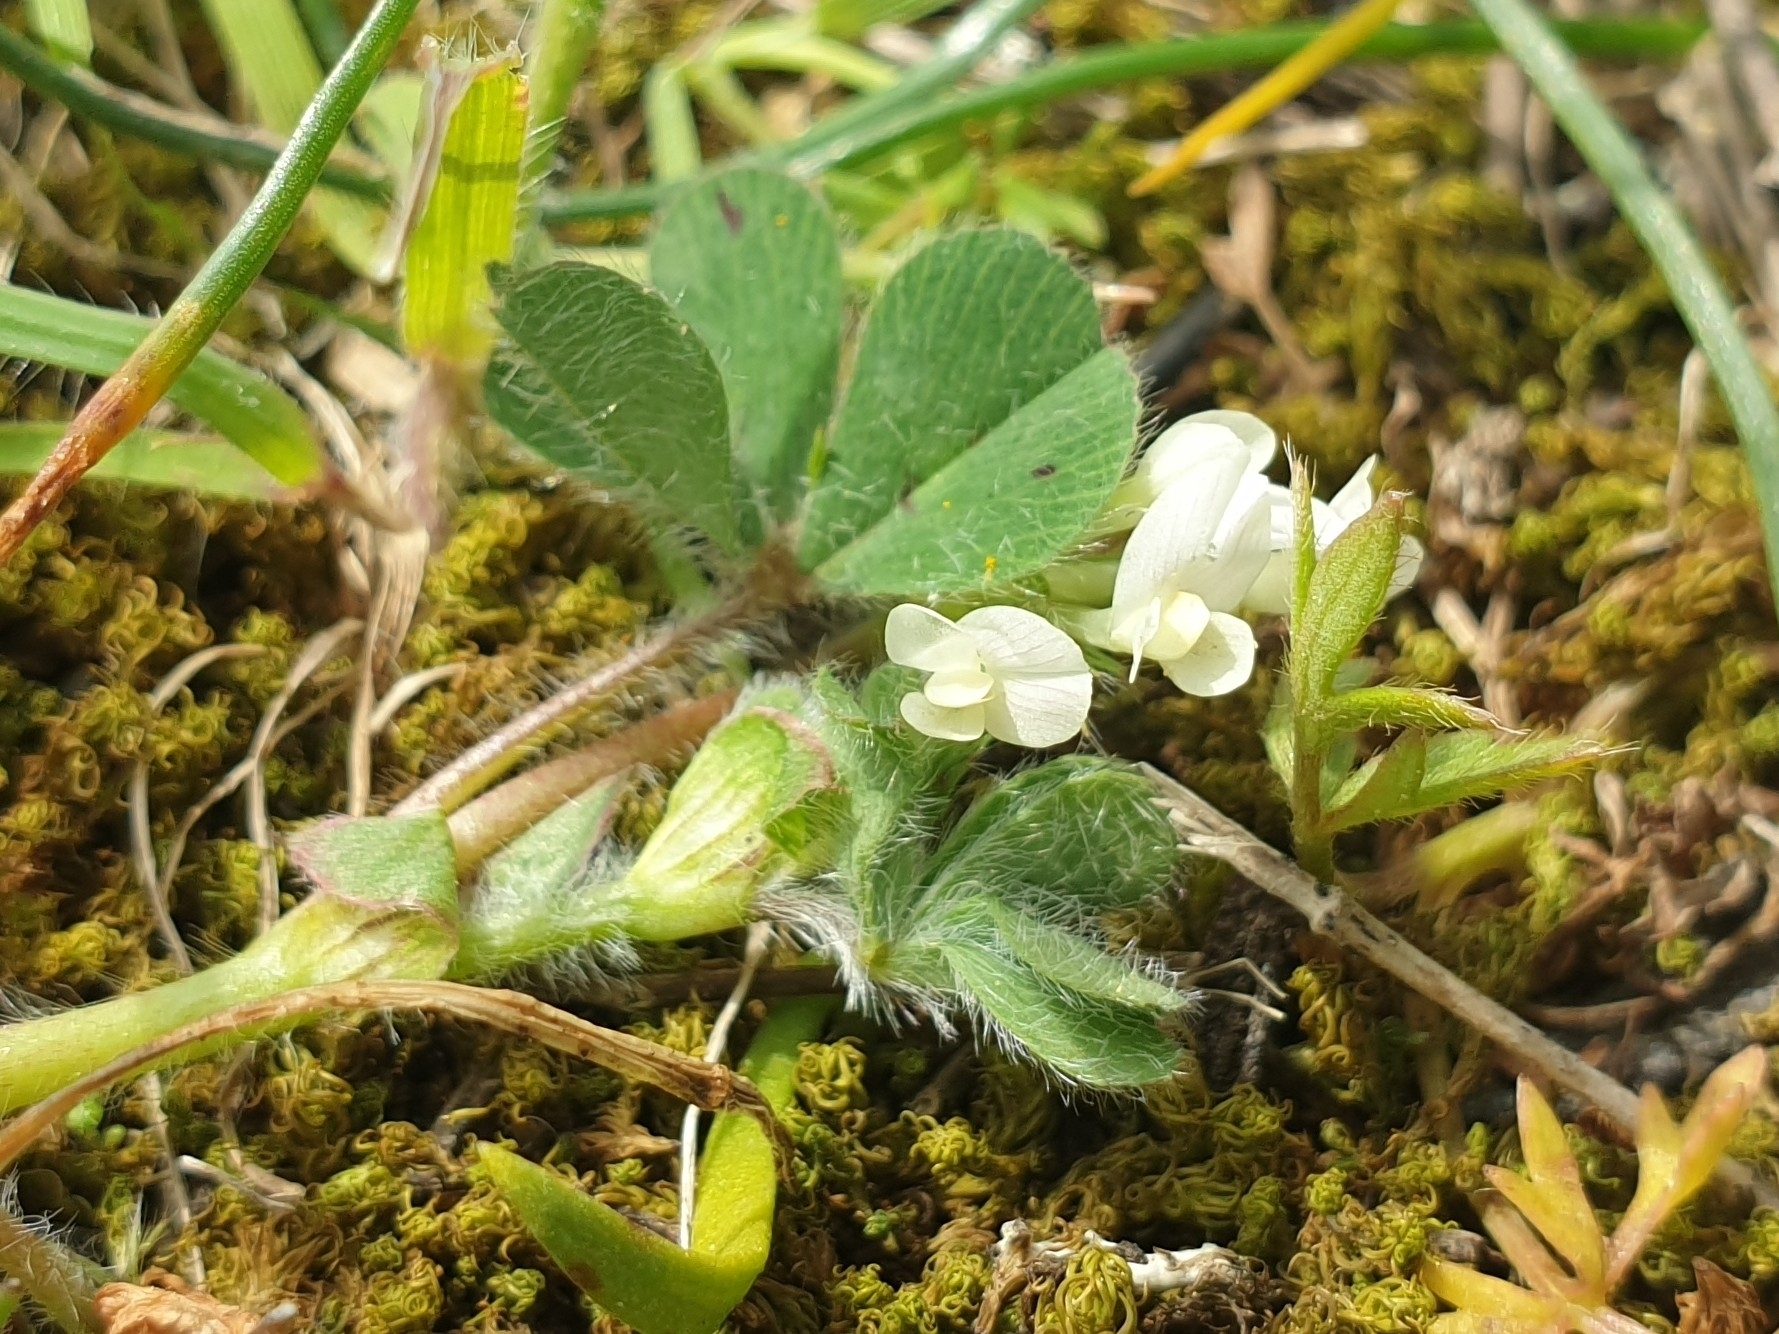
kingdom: Plantae
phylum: Tracheophyta
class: Magnoliopsida
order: Fabales
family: Fabaceae
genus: Trifolium
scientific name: Trifolium subterraneum
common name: Subterranean clover
